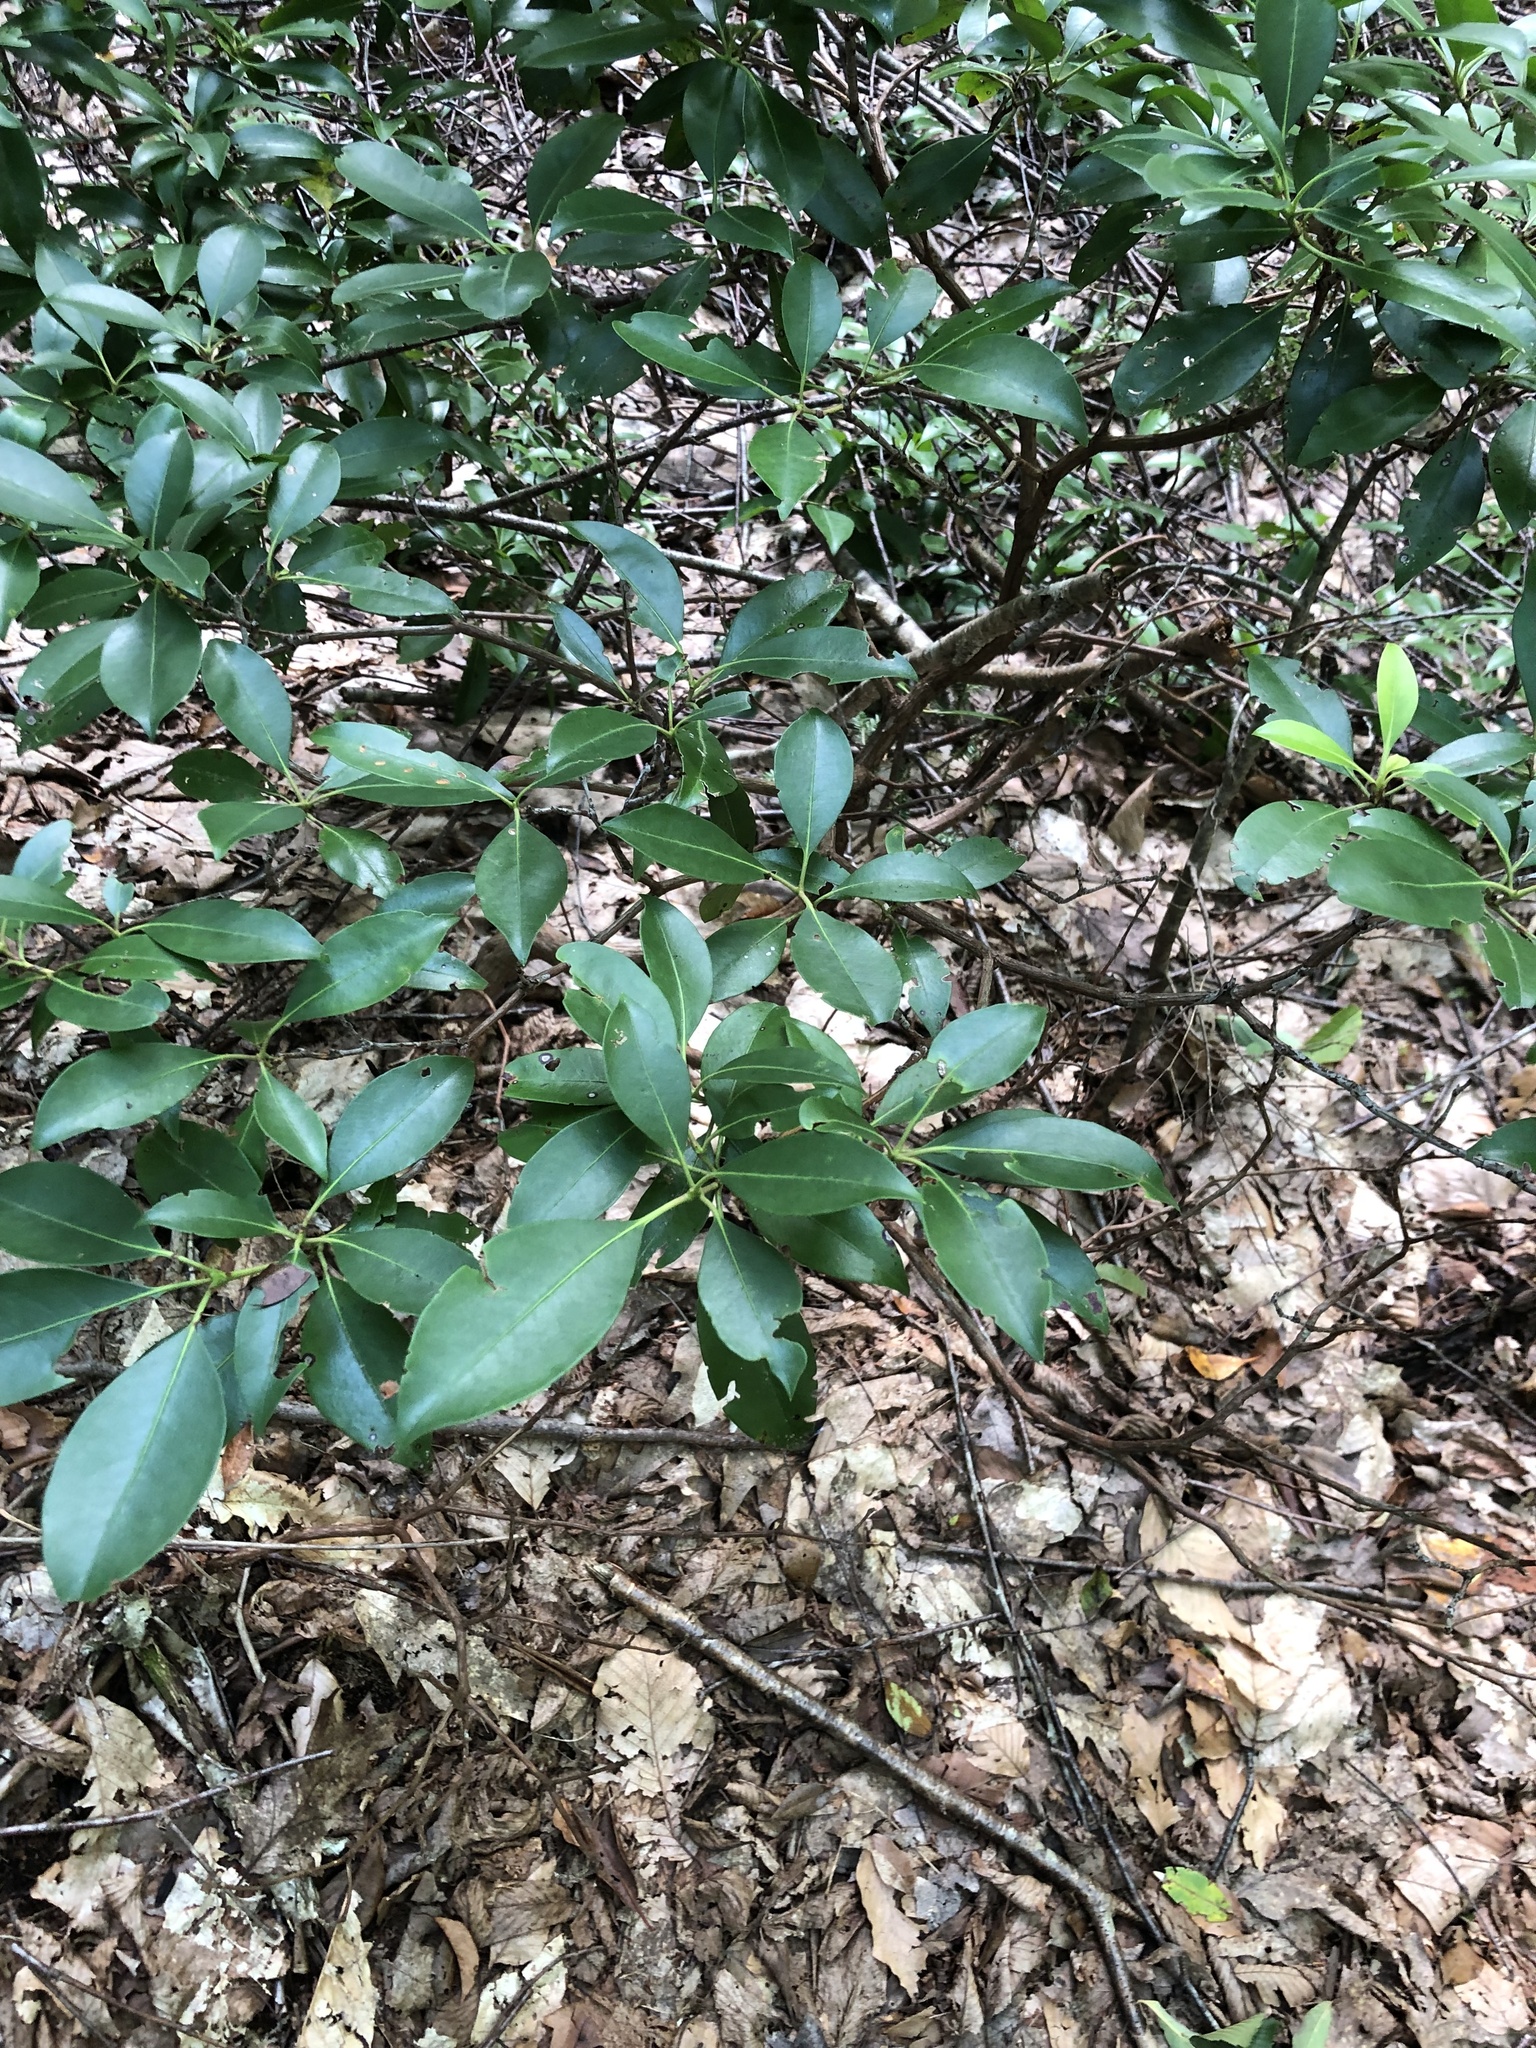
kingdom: Plantae
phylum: Tracheophyta
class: Magnoliopsida
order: Ericales
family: Ericaceae
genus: Kalmia
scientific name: Kalmia latifolia
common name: Mountain-laurel
